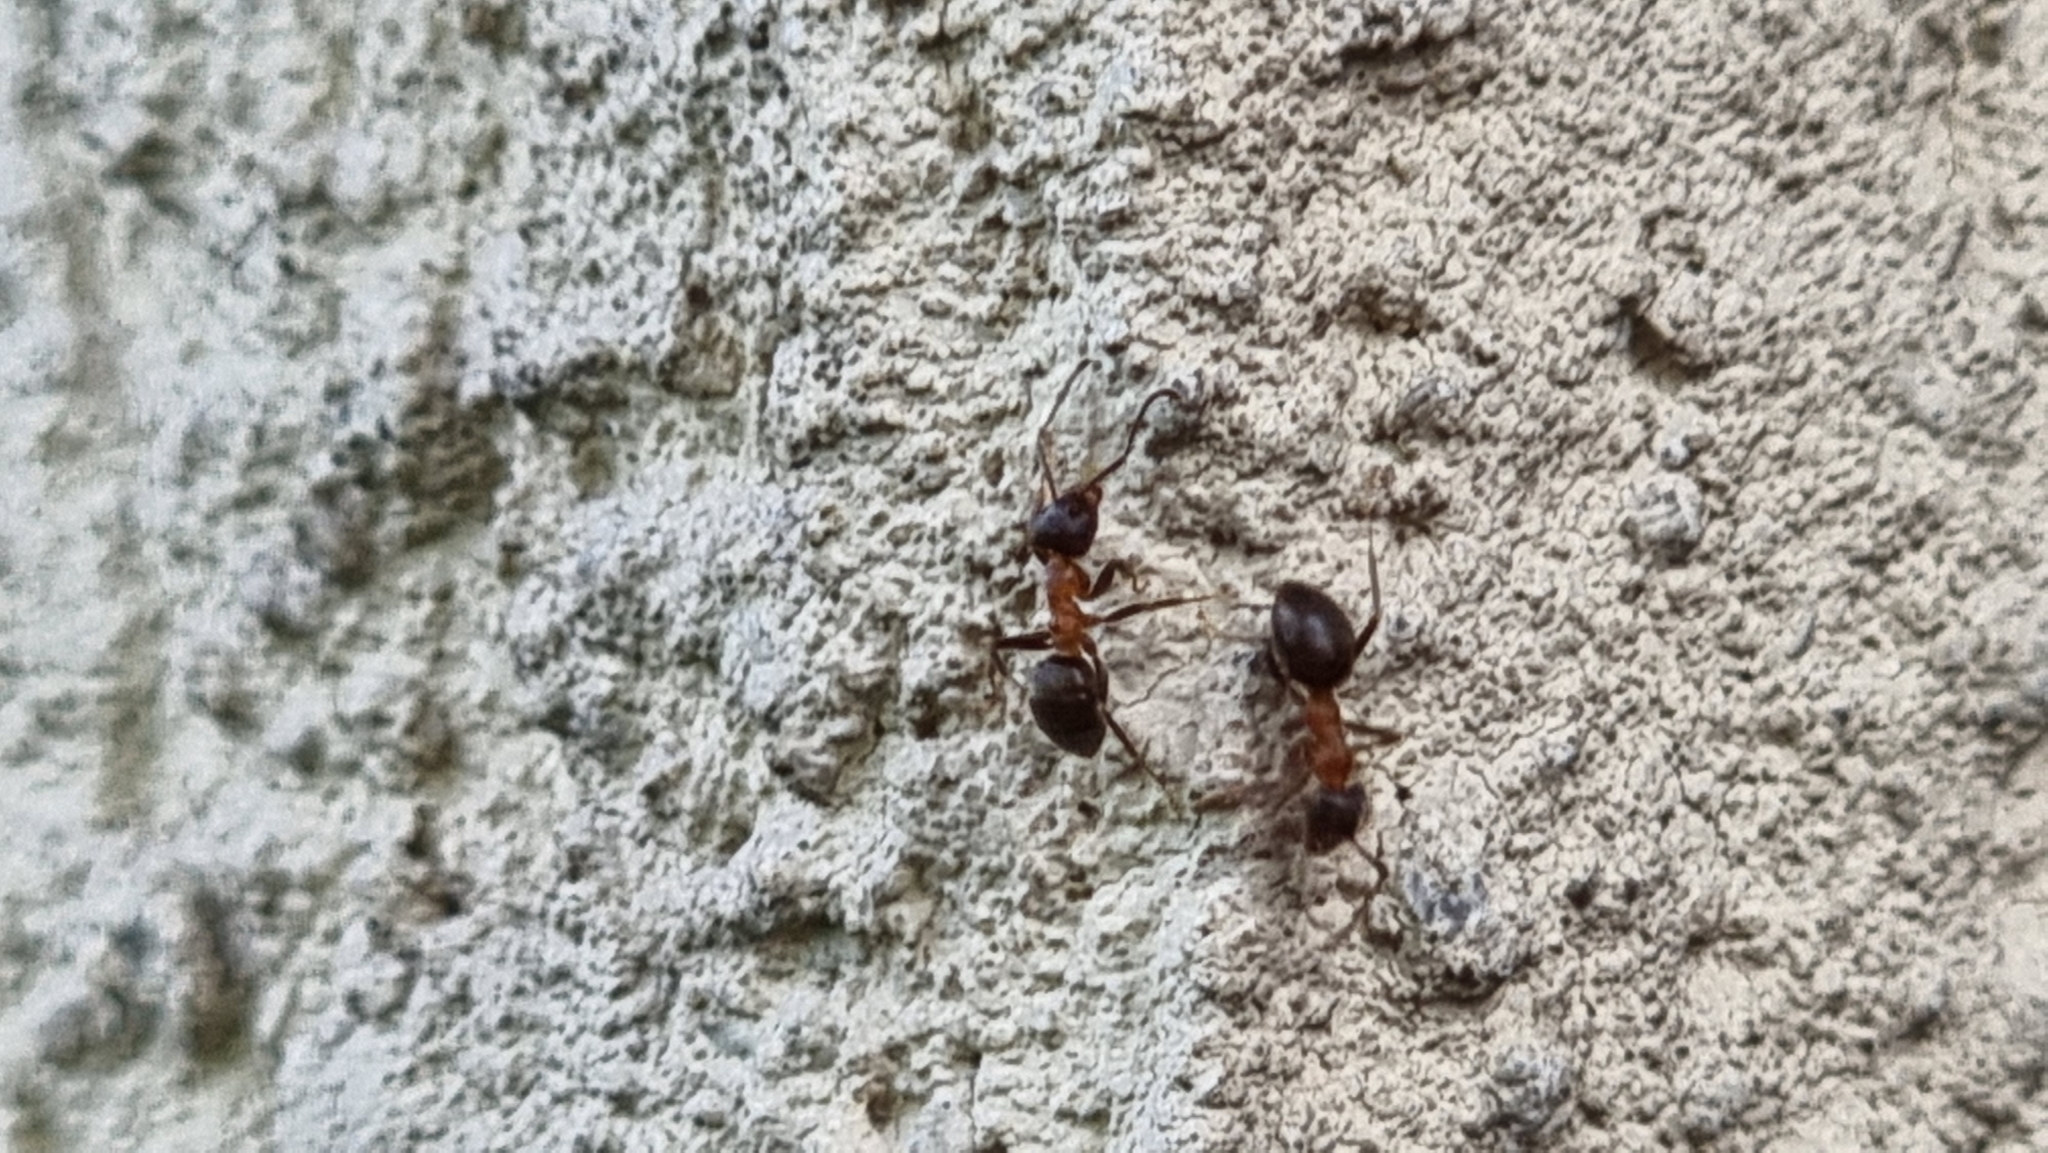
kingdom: Animalia
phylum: Arthropoda
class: Insecta
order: Hymenoptera
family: Formicidae
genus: Lasius
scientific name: Lasius emarginatus
